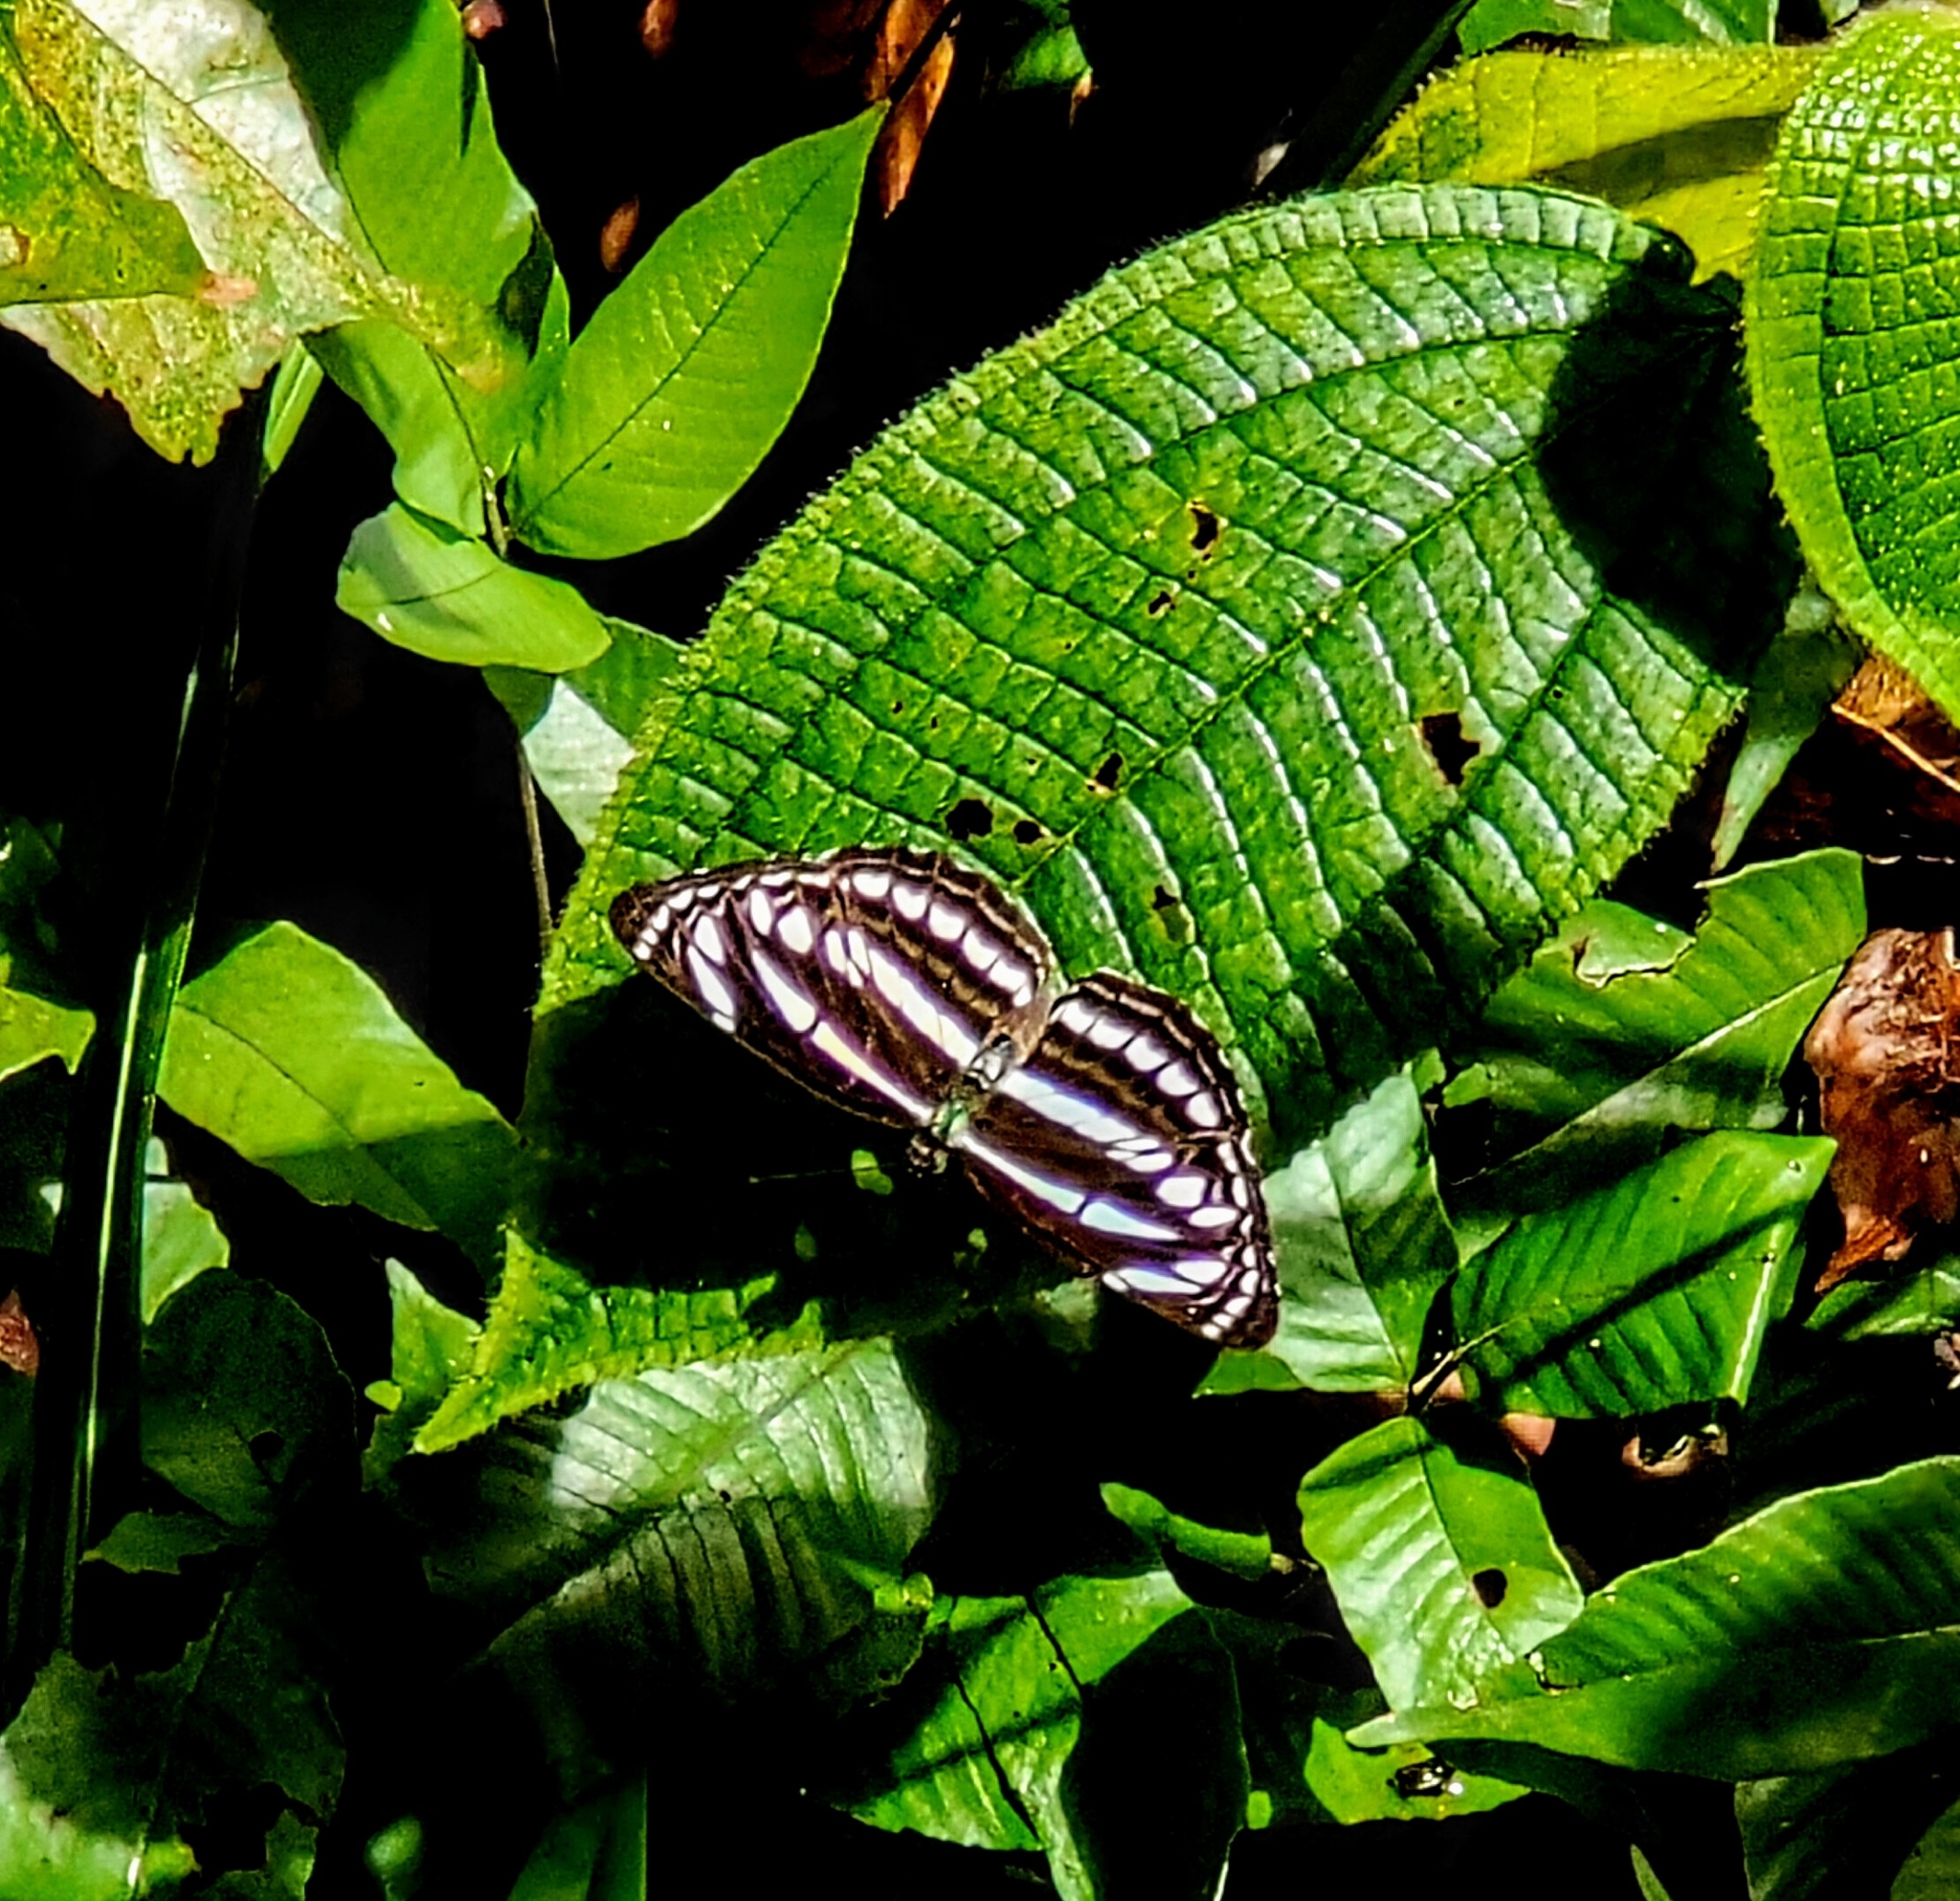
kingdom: Animalia
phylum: Arthropoda
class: Insecta
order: Lepidoptera
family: Nymphalidae
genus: Neptis
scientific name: Neptis leucoporus
